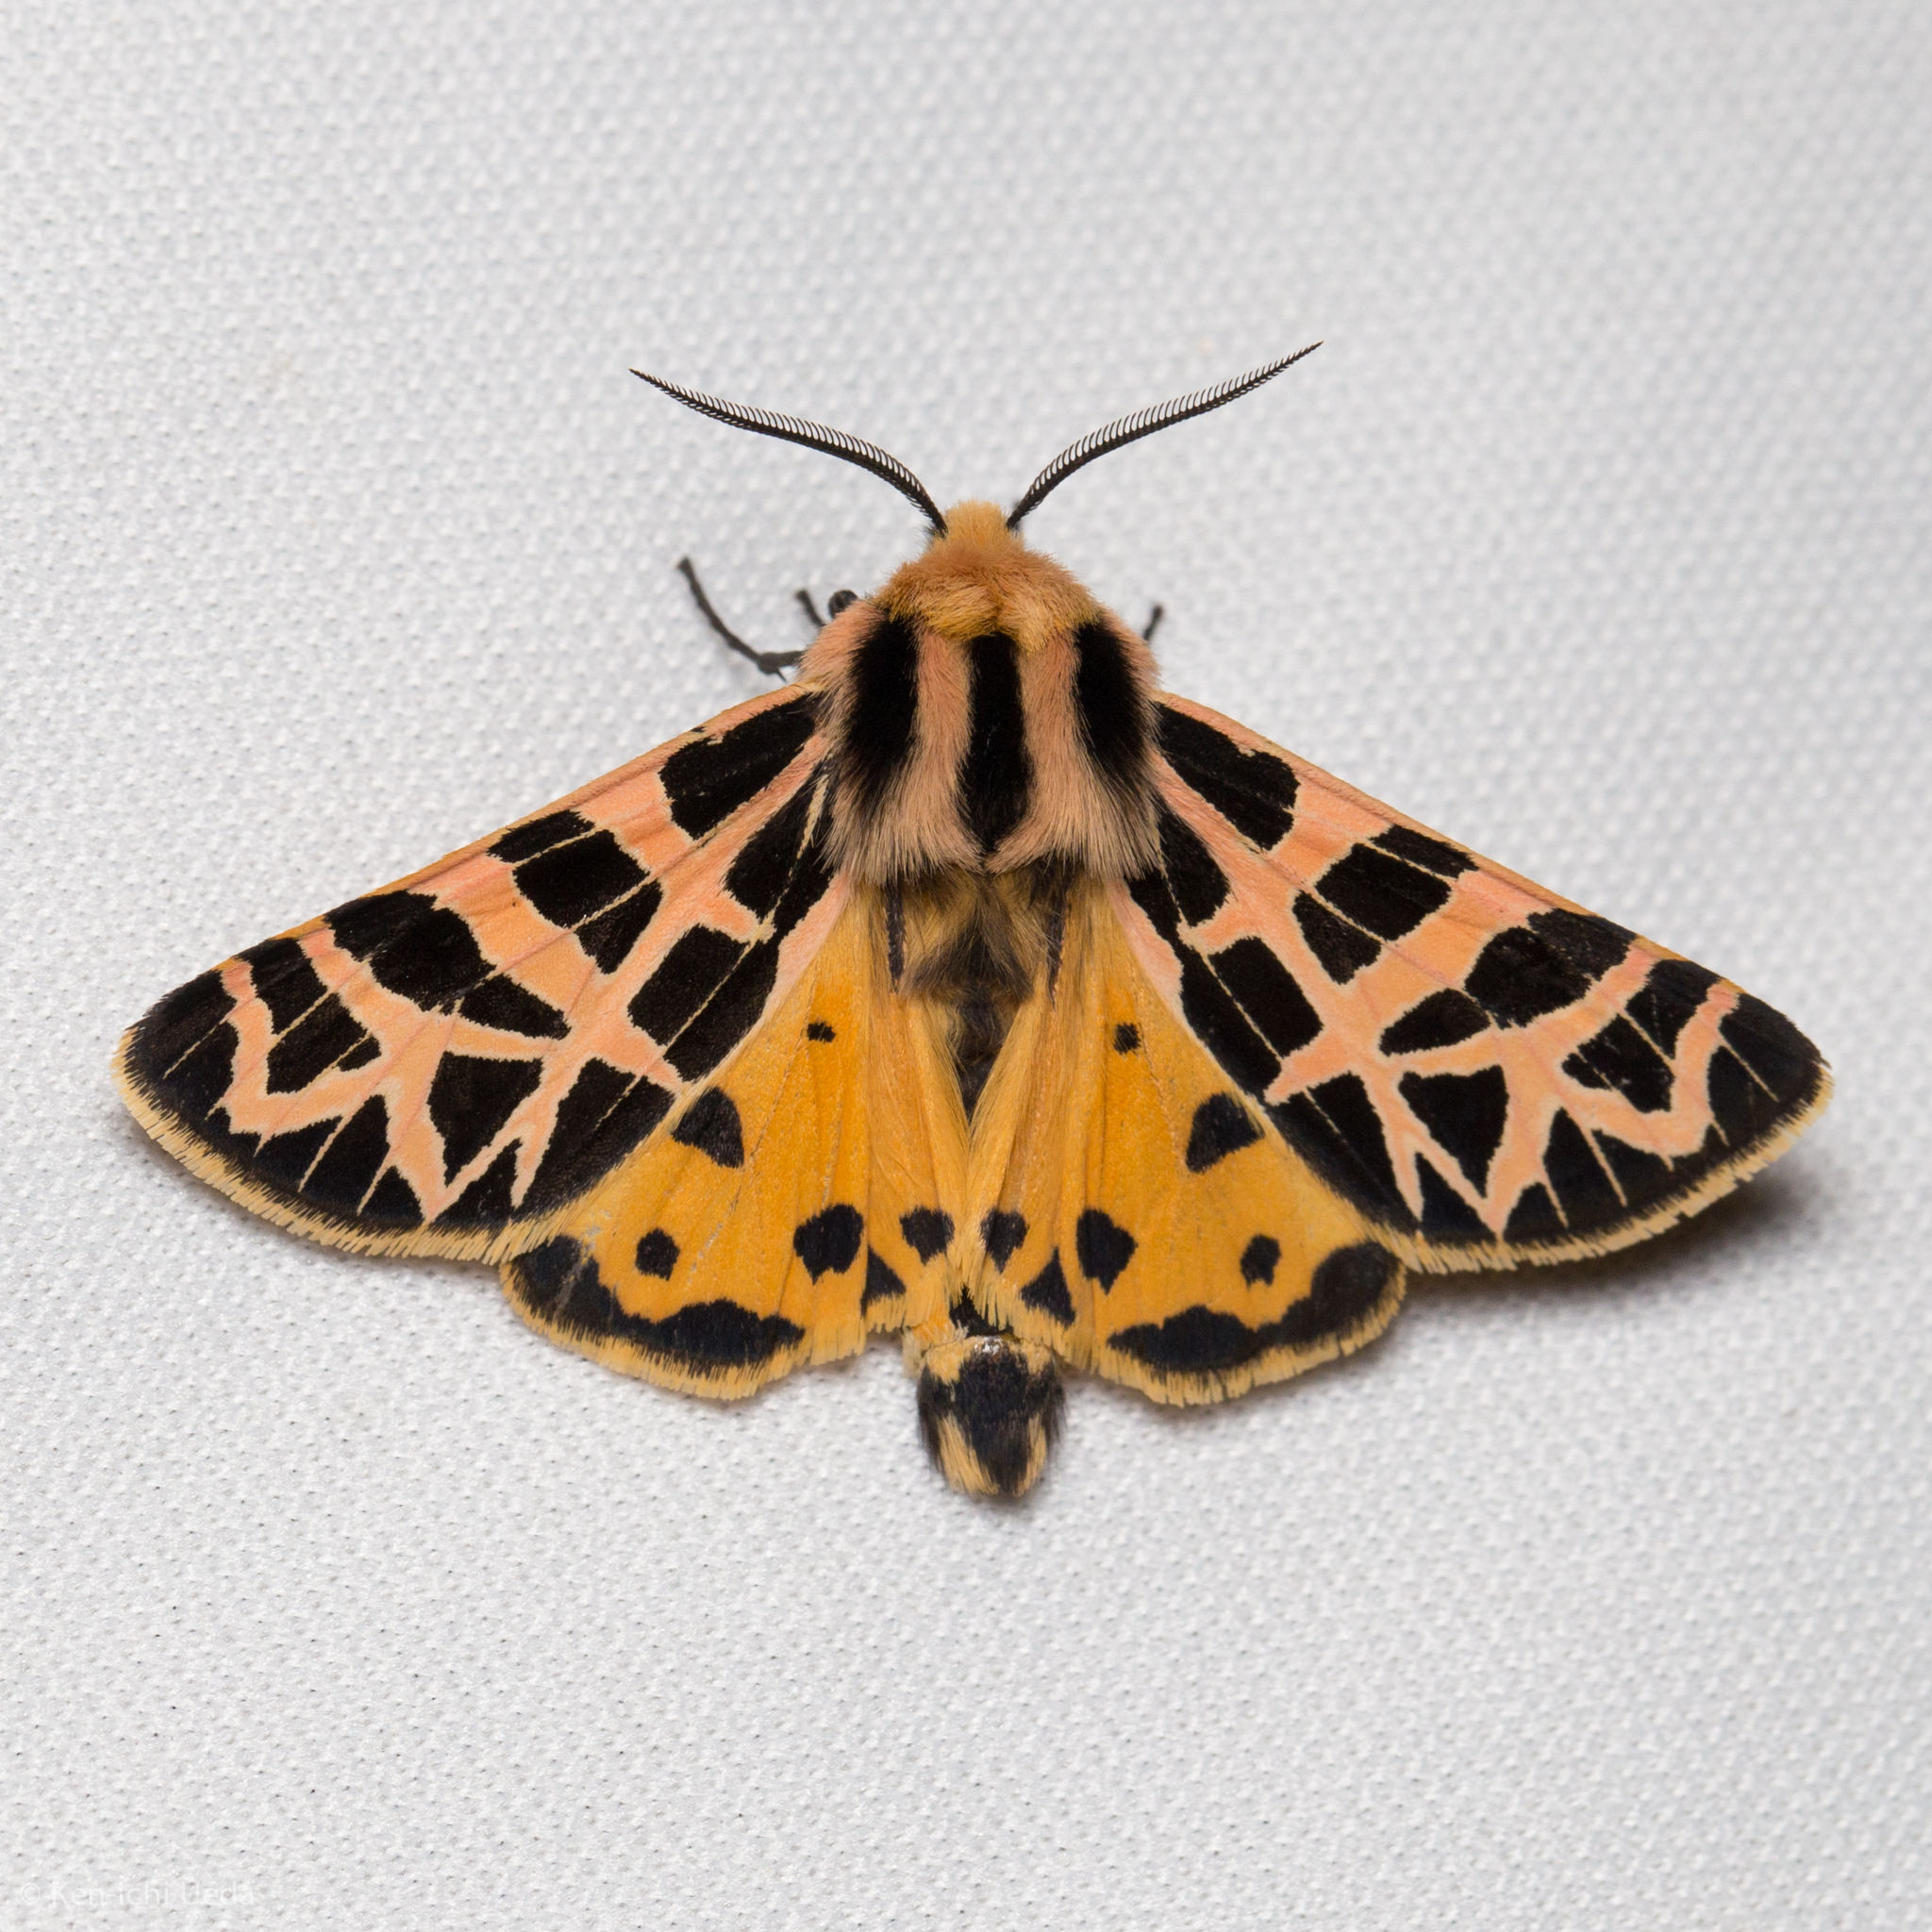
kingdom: Animalia
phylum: Arthropoda
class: Insecta
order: Lepidoptera
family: Erebidae
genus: Apantesis
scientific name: Apantesis
